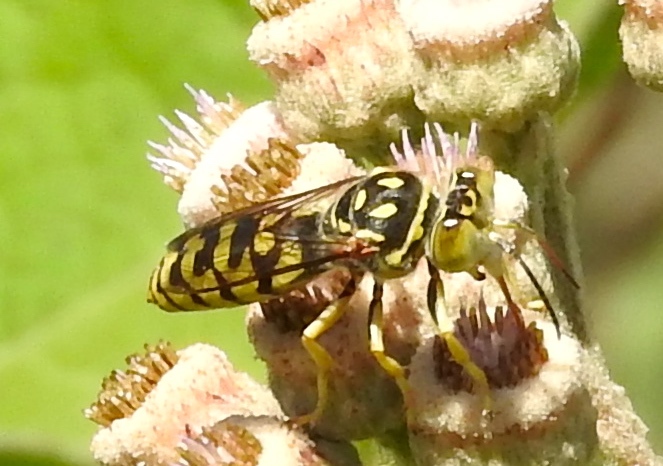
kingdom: Animalia
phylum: Arthropoda
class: Insecta
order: Hymenoptera
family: Crabronidae
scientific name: Crabronidae
